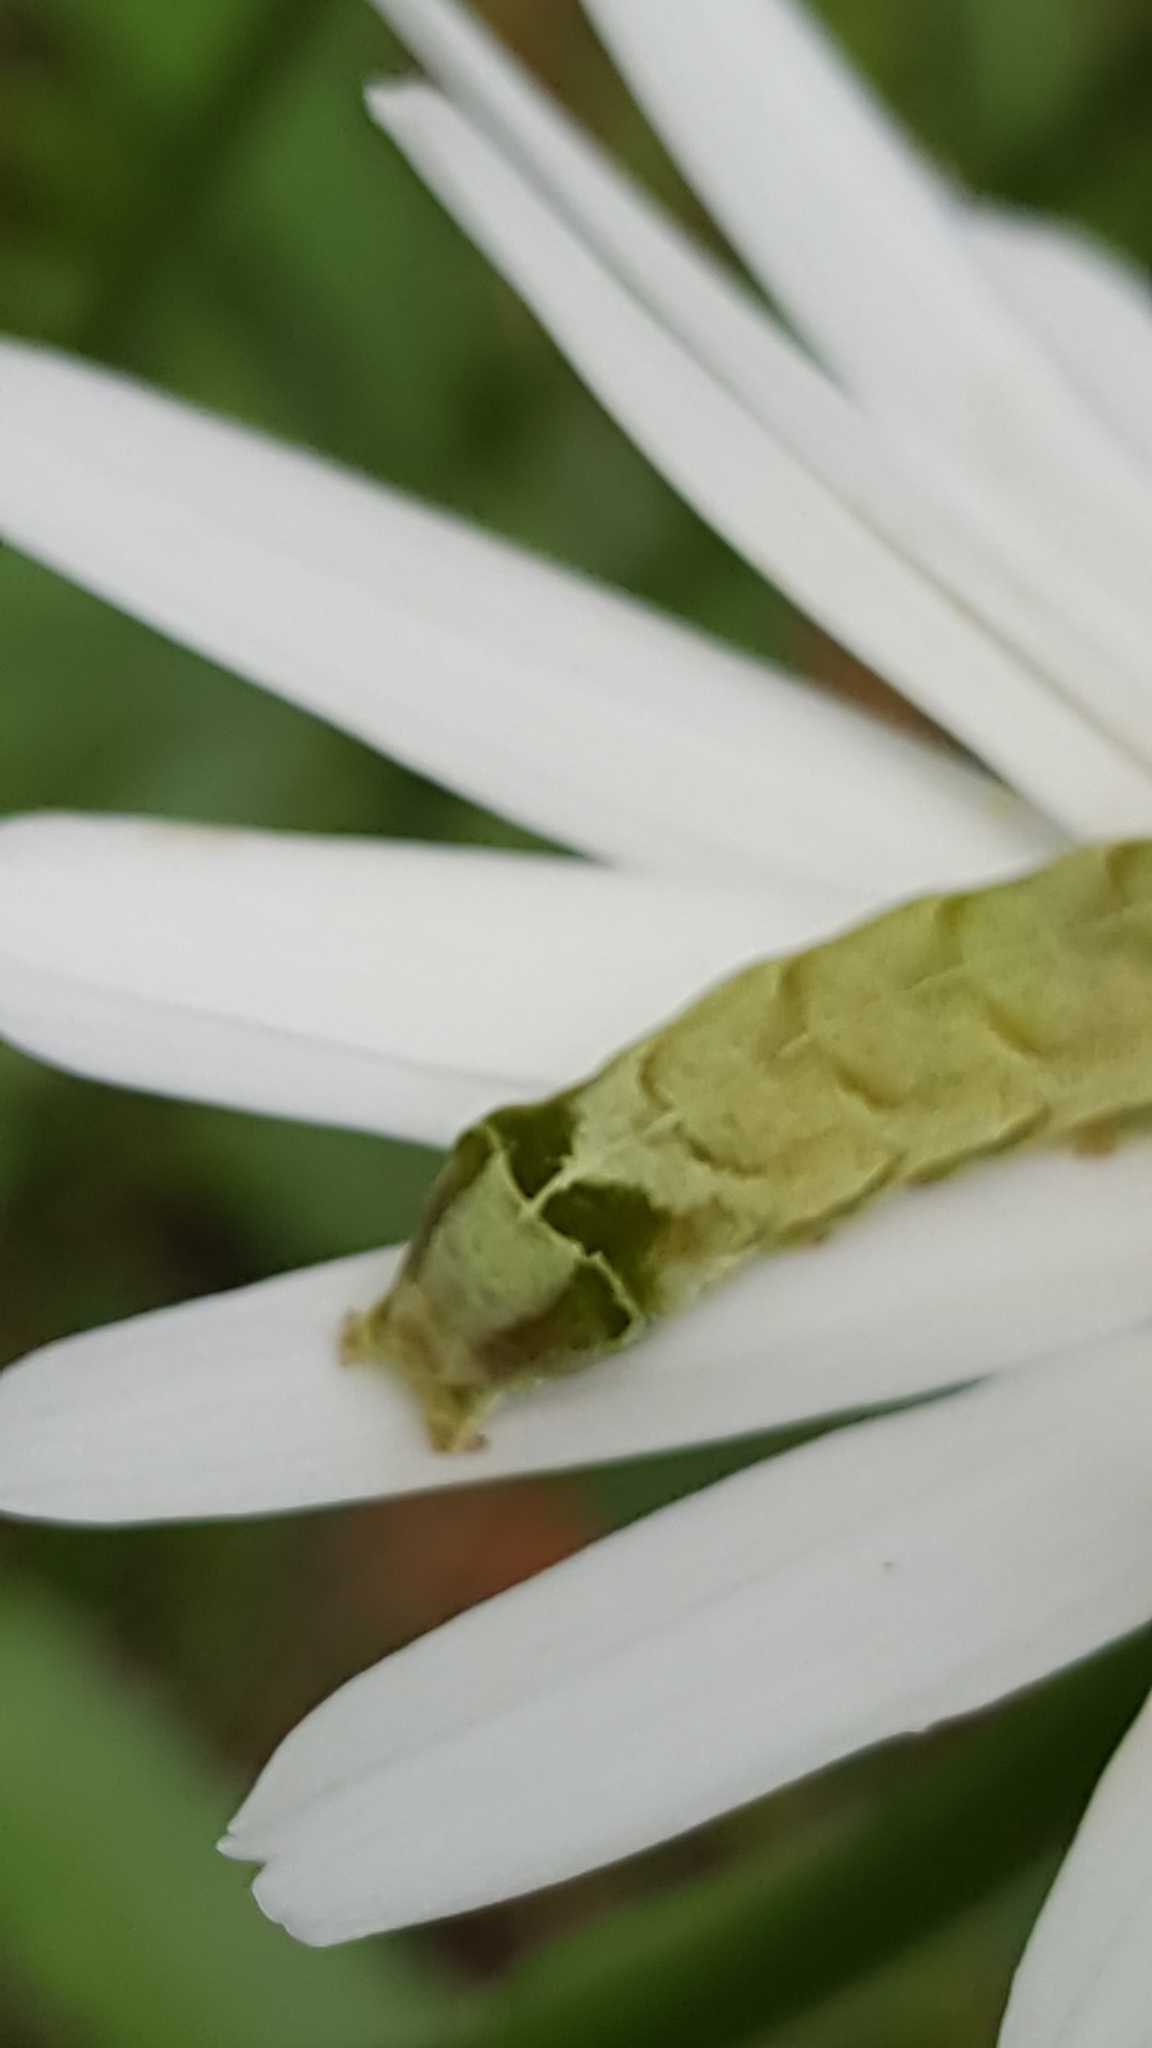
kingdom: Animalia
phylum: Arthropoda
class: Insecta
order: Lepidoptera
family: Noctuidae
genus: Melanchra
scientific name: Melanchra adjuncta
